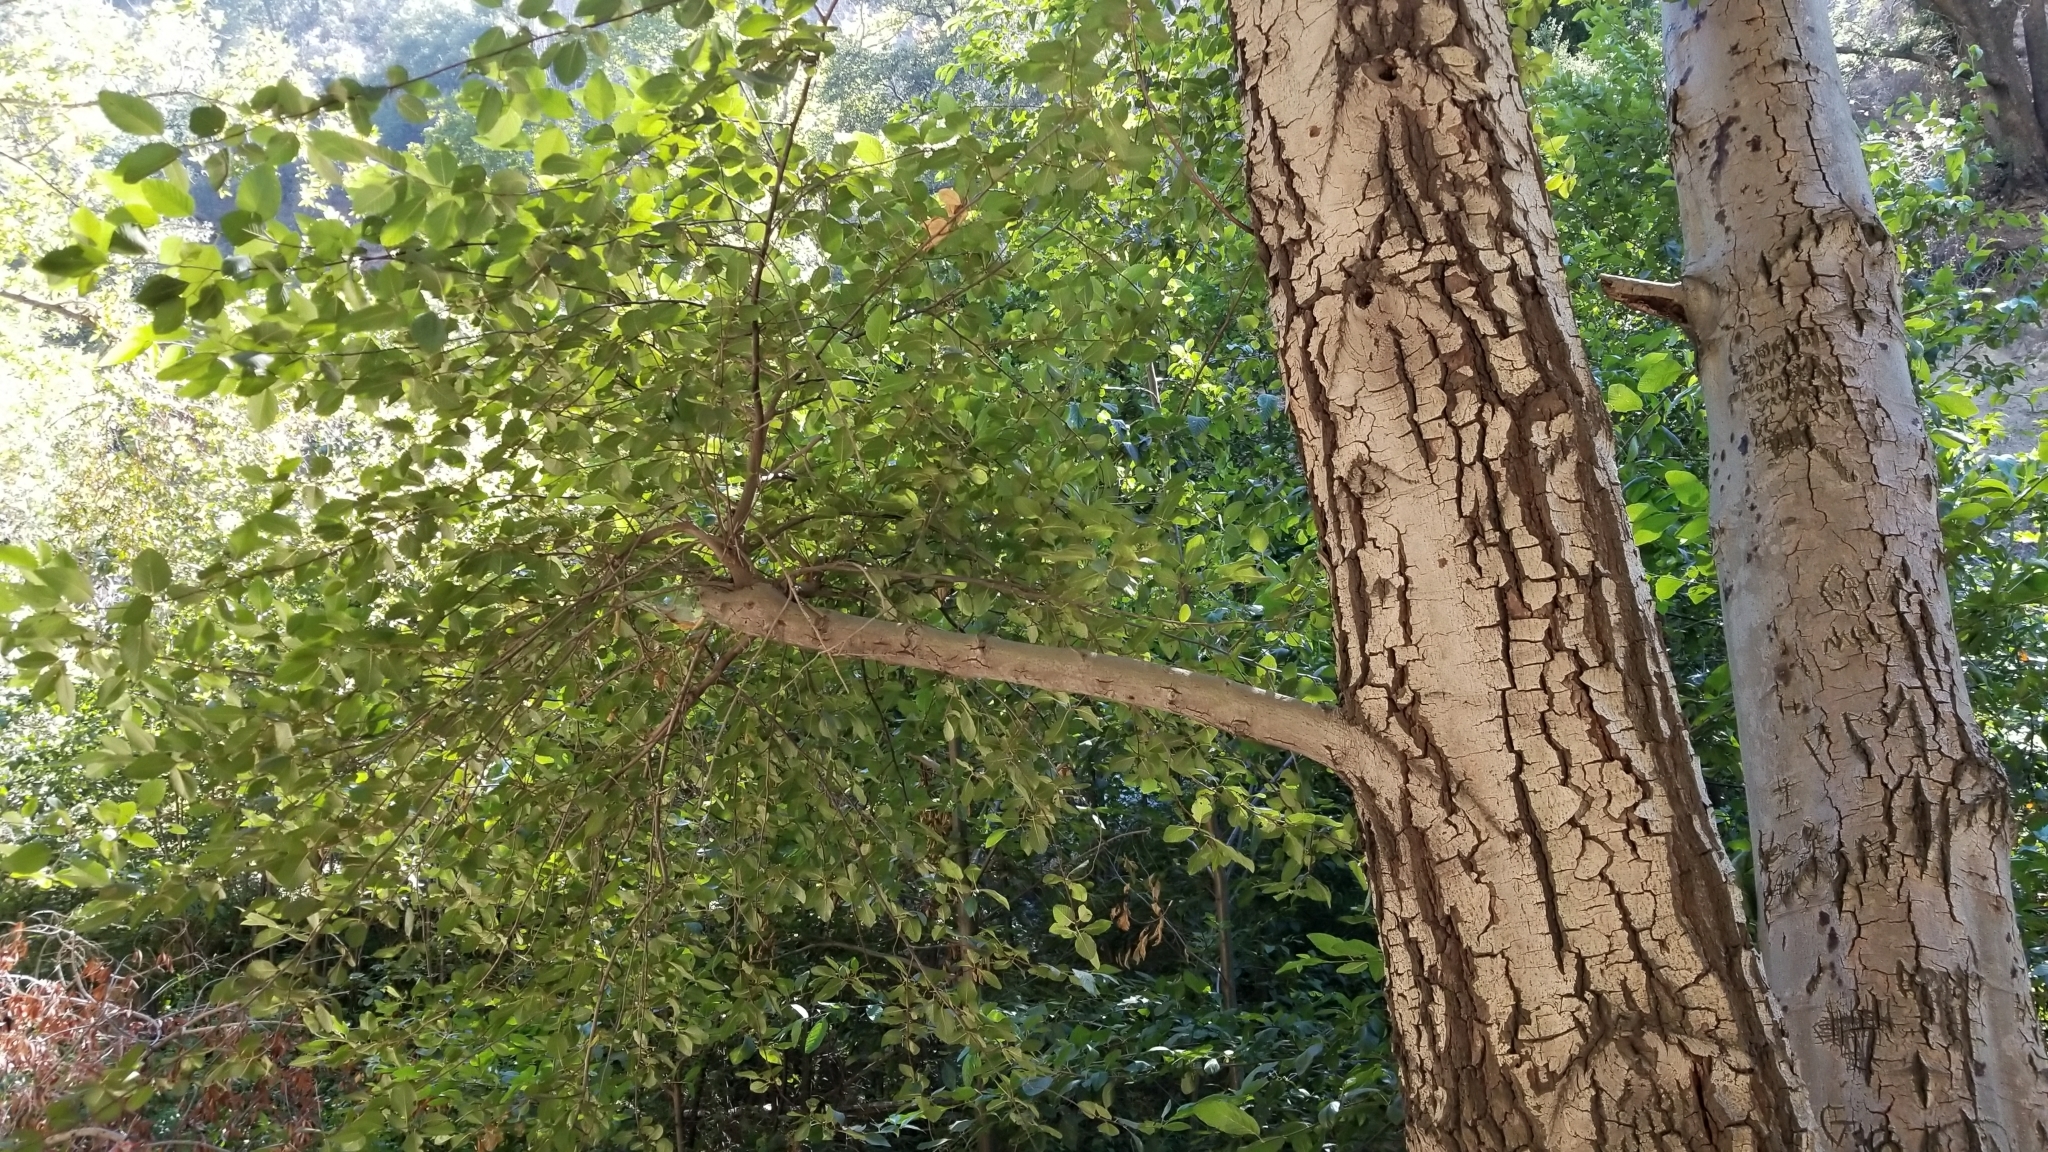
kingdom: Plantae
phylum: Tracheophyta
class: Magnoliopsida
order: Fagales
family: Betulaceae
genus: Alnus
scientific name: Alnus rhombifolia
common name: California alder
